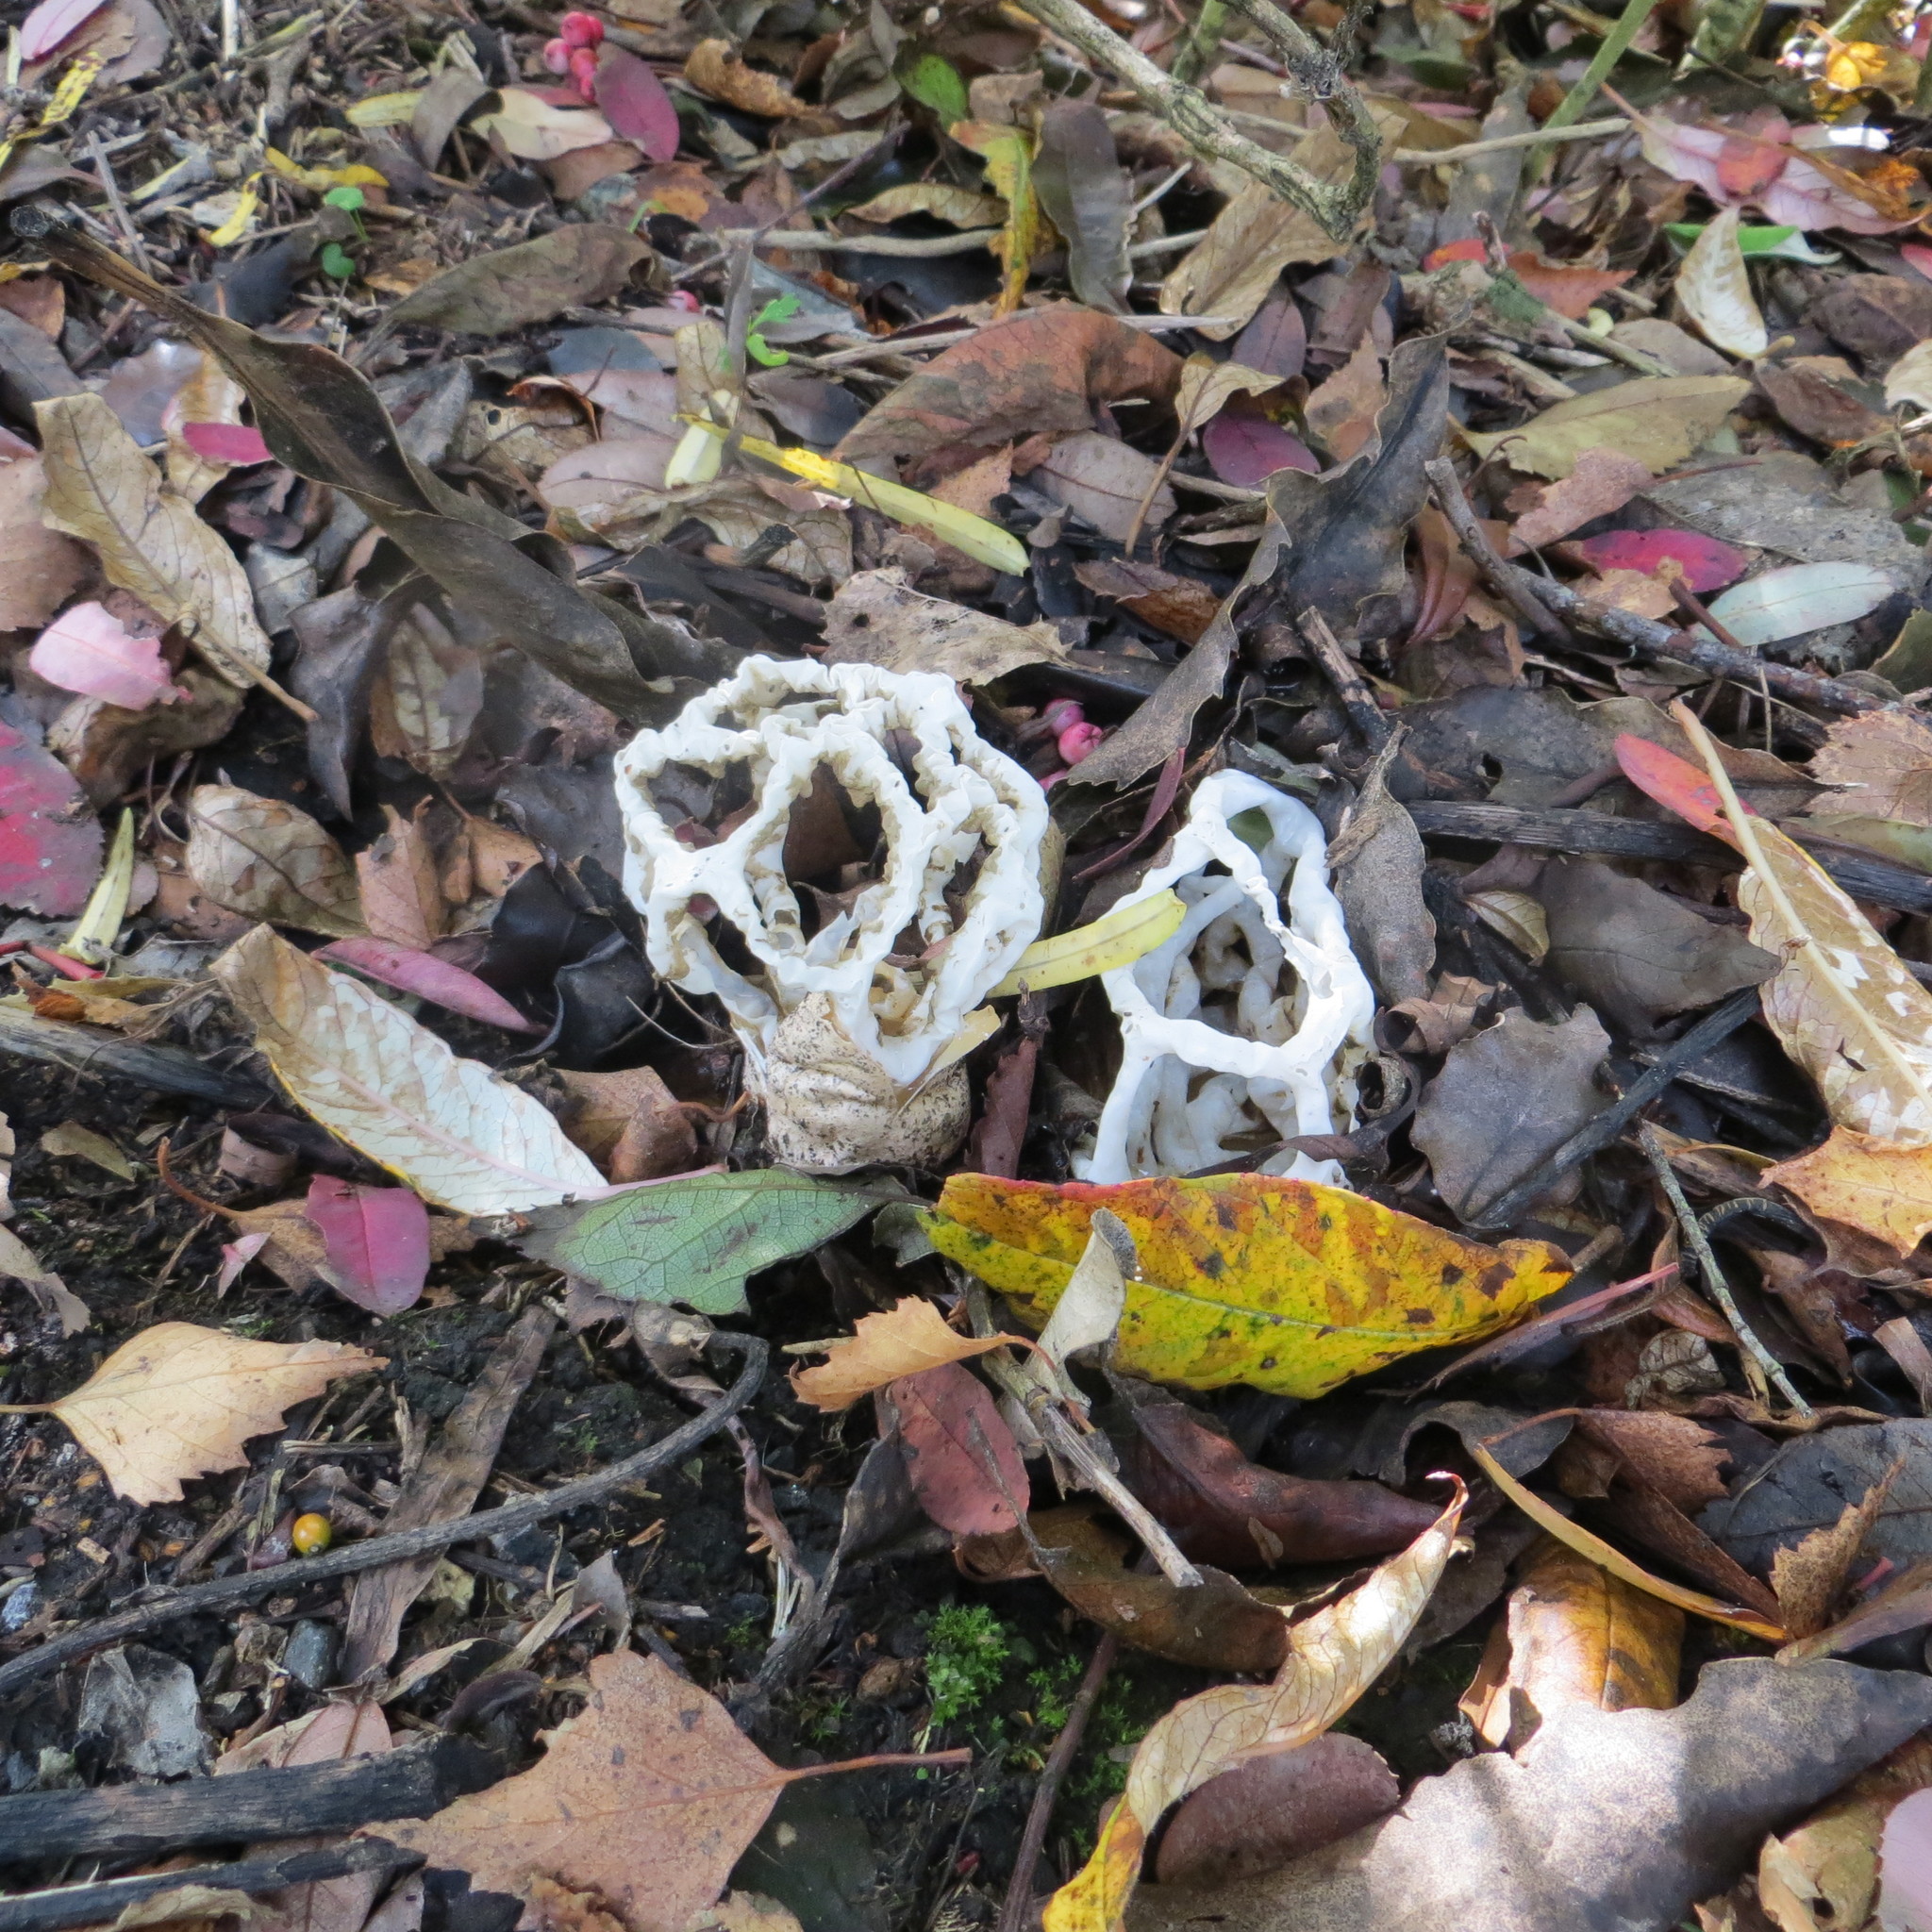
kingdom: Fungi
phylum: Basidiomycota
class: Agaricomycetes
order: Phallales
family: Phallaceae
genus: Ileodictyon
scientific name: Ileodictyon cibarium
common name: Basket fungus
